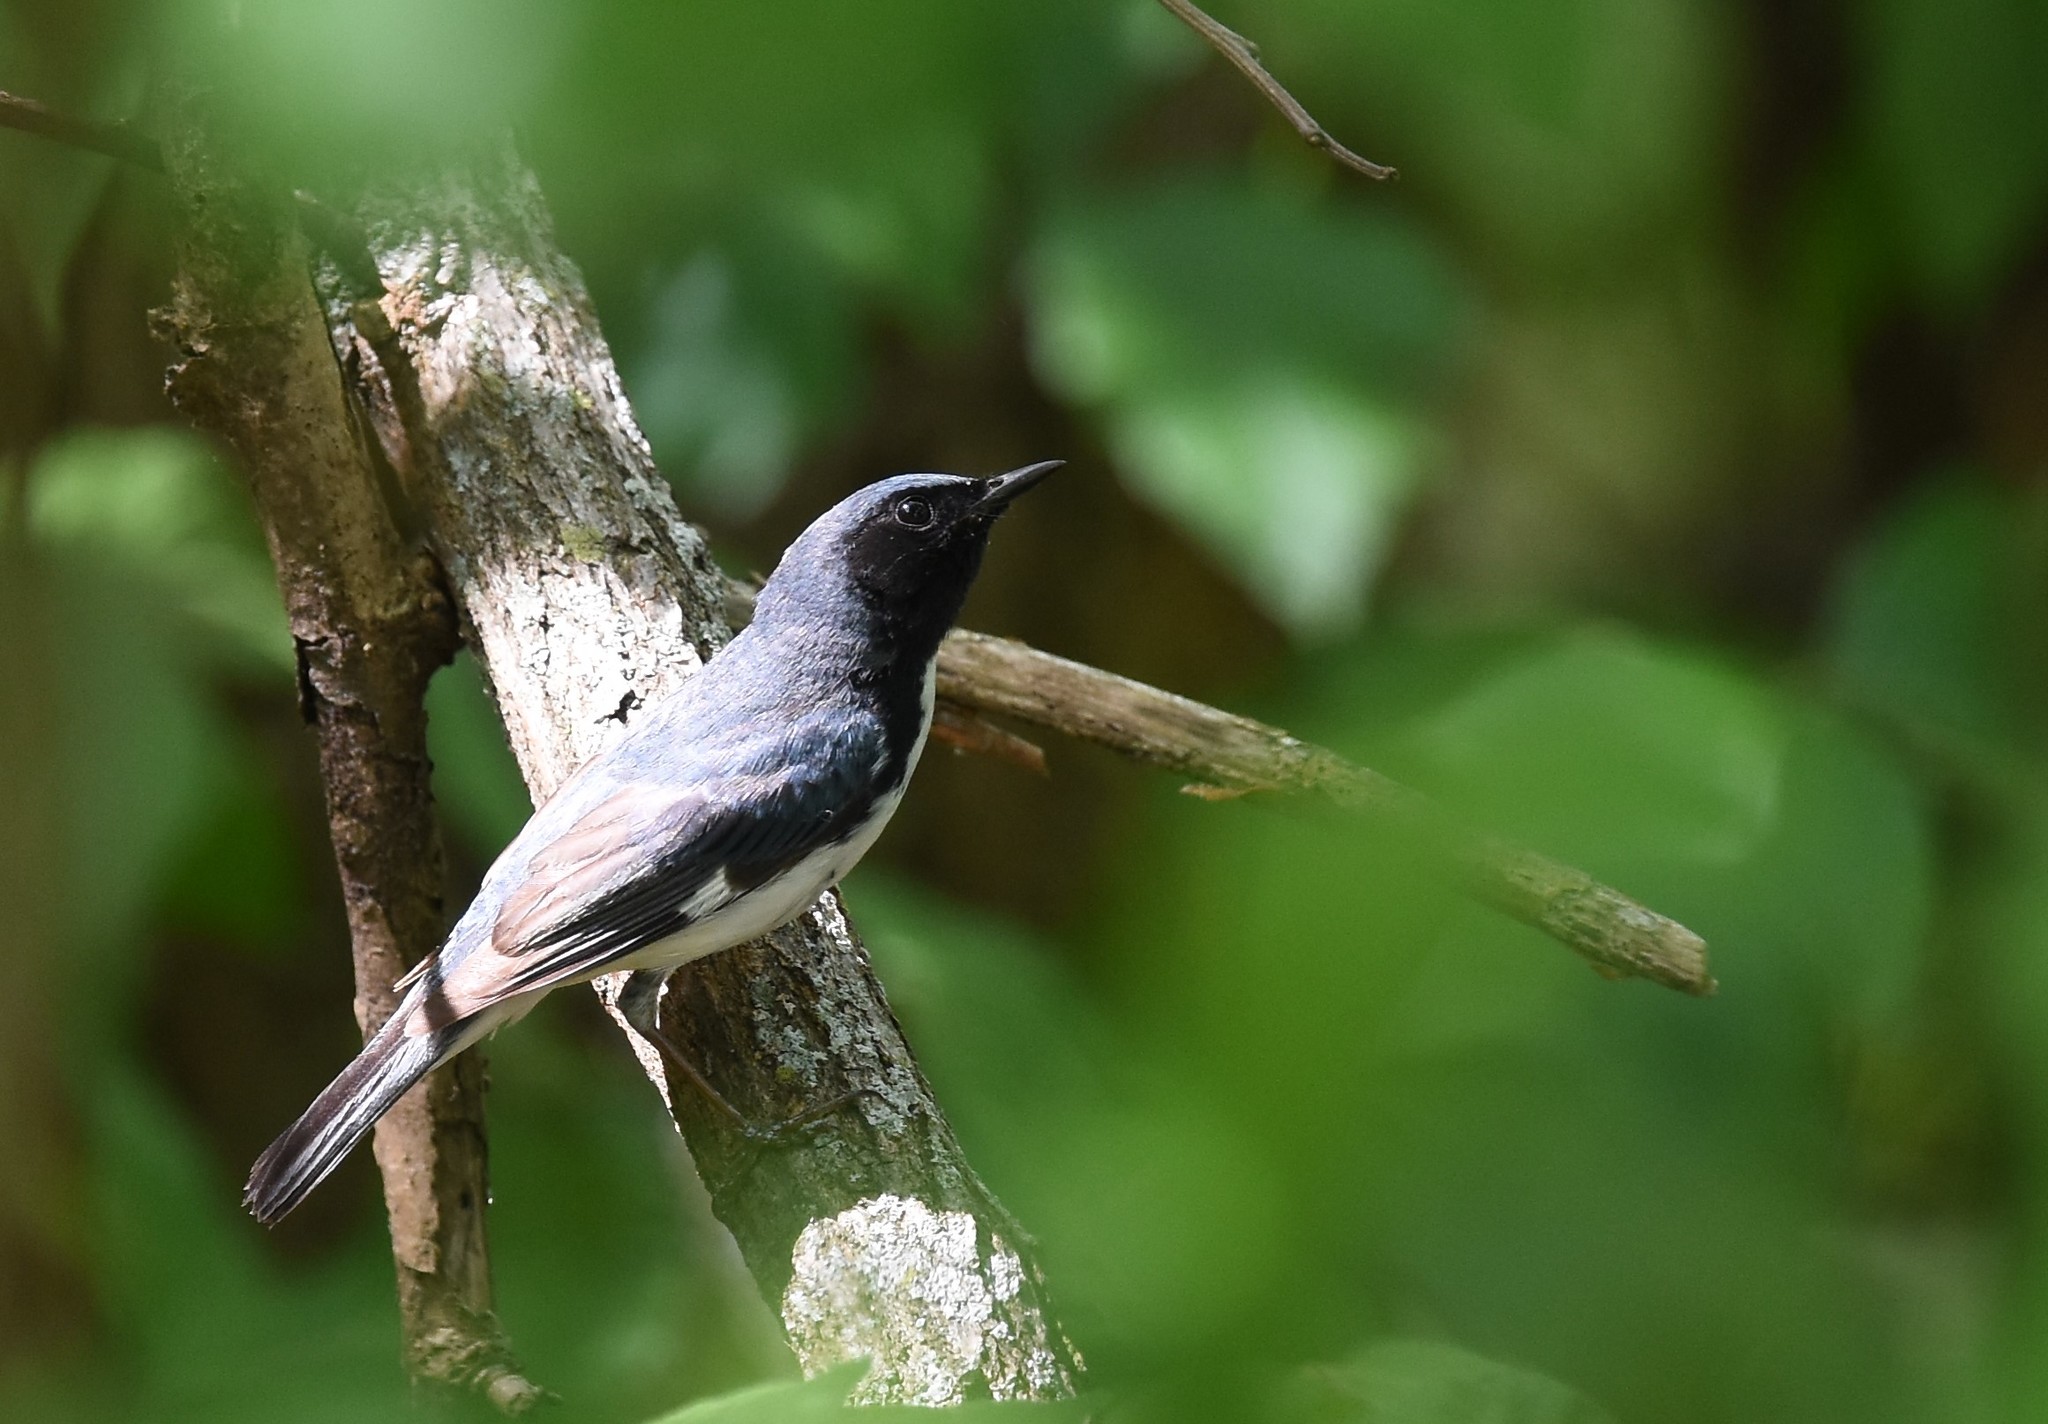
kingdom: Animalia
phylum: Chordata
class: Aves
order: Passeriformes
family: Parulidae
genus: Setophaga
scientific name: Setophaga caerulescens
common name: Black-throated blue warbler
